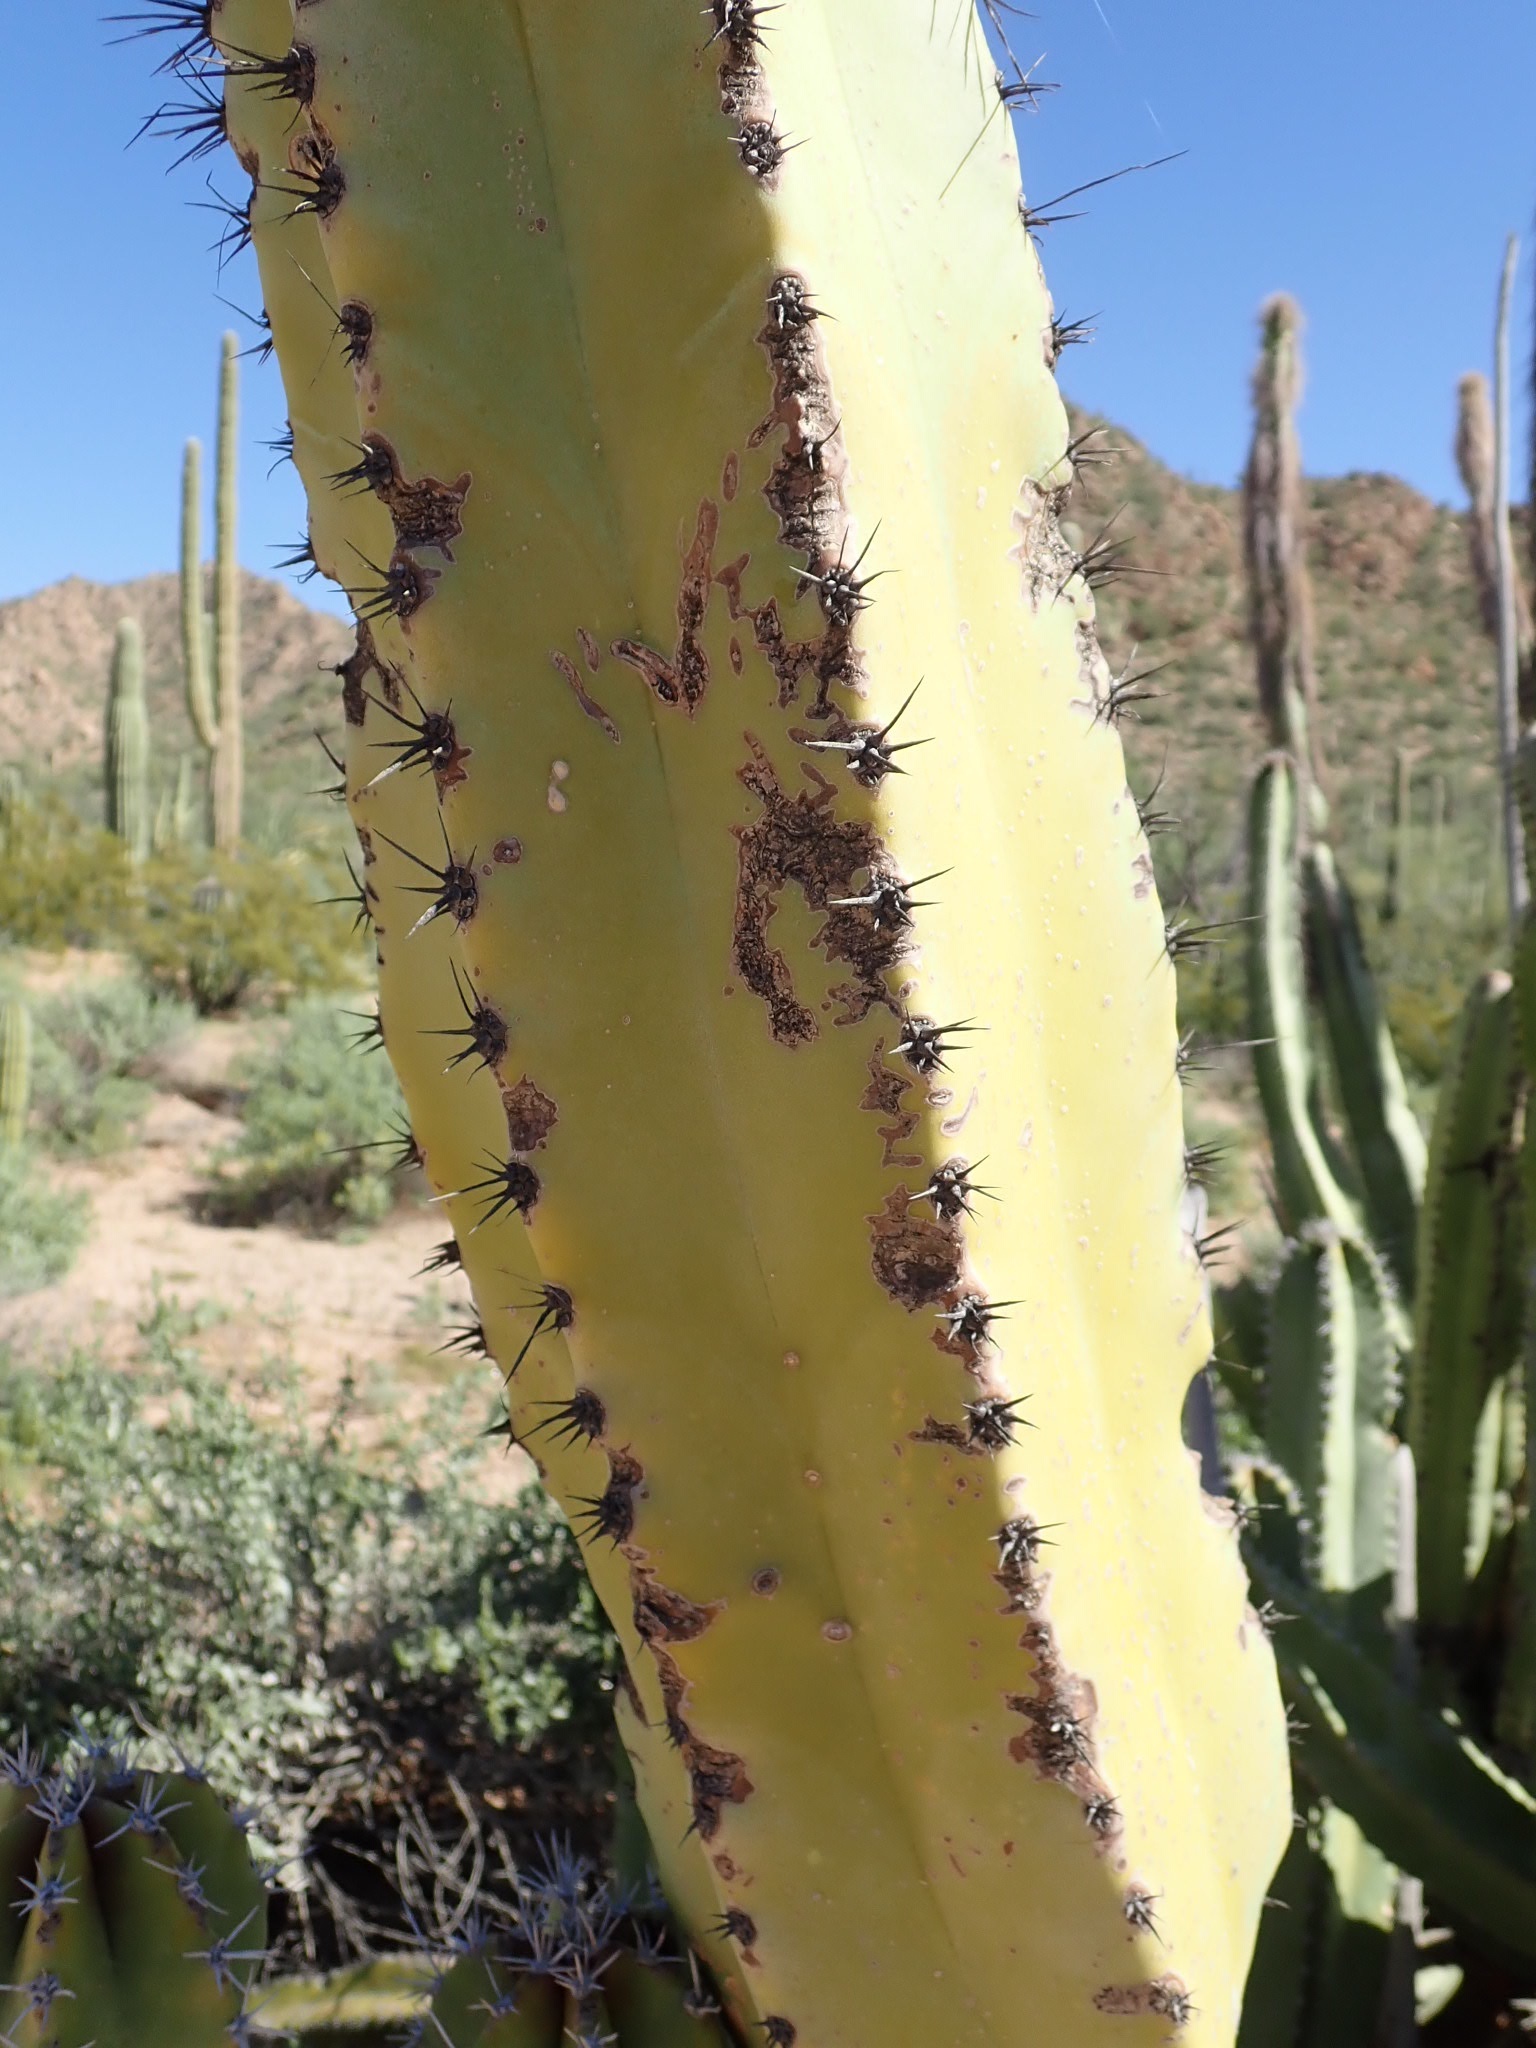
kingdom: Plantae
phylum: Tracheophyta
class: Magnoliopsida
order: Caryophyllales
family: Cactaceae
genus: Pachycereus
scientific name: Pachycereus schottii
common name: Senita cactus
